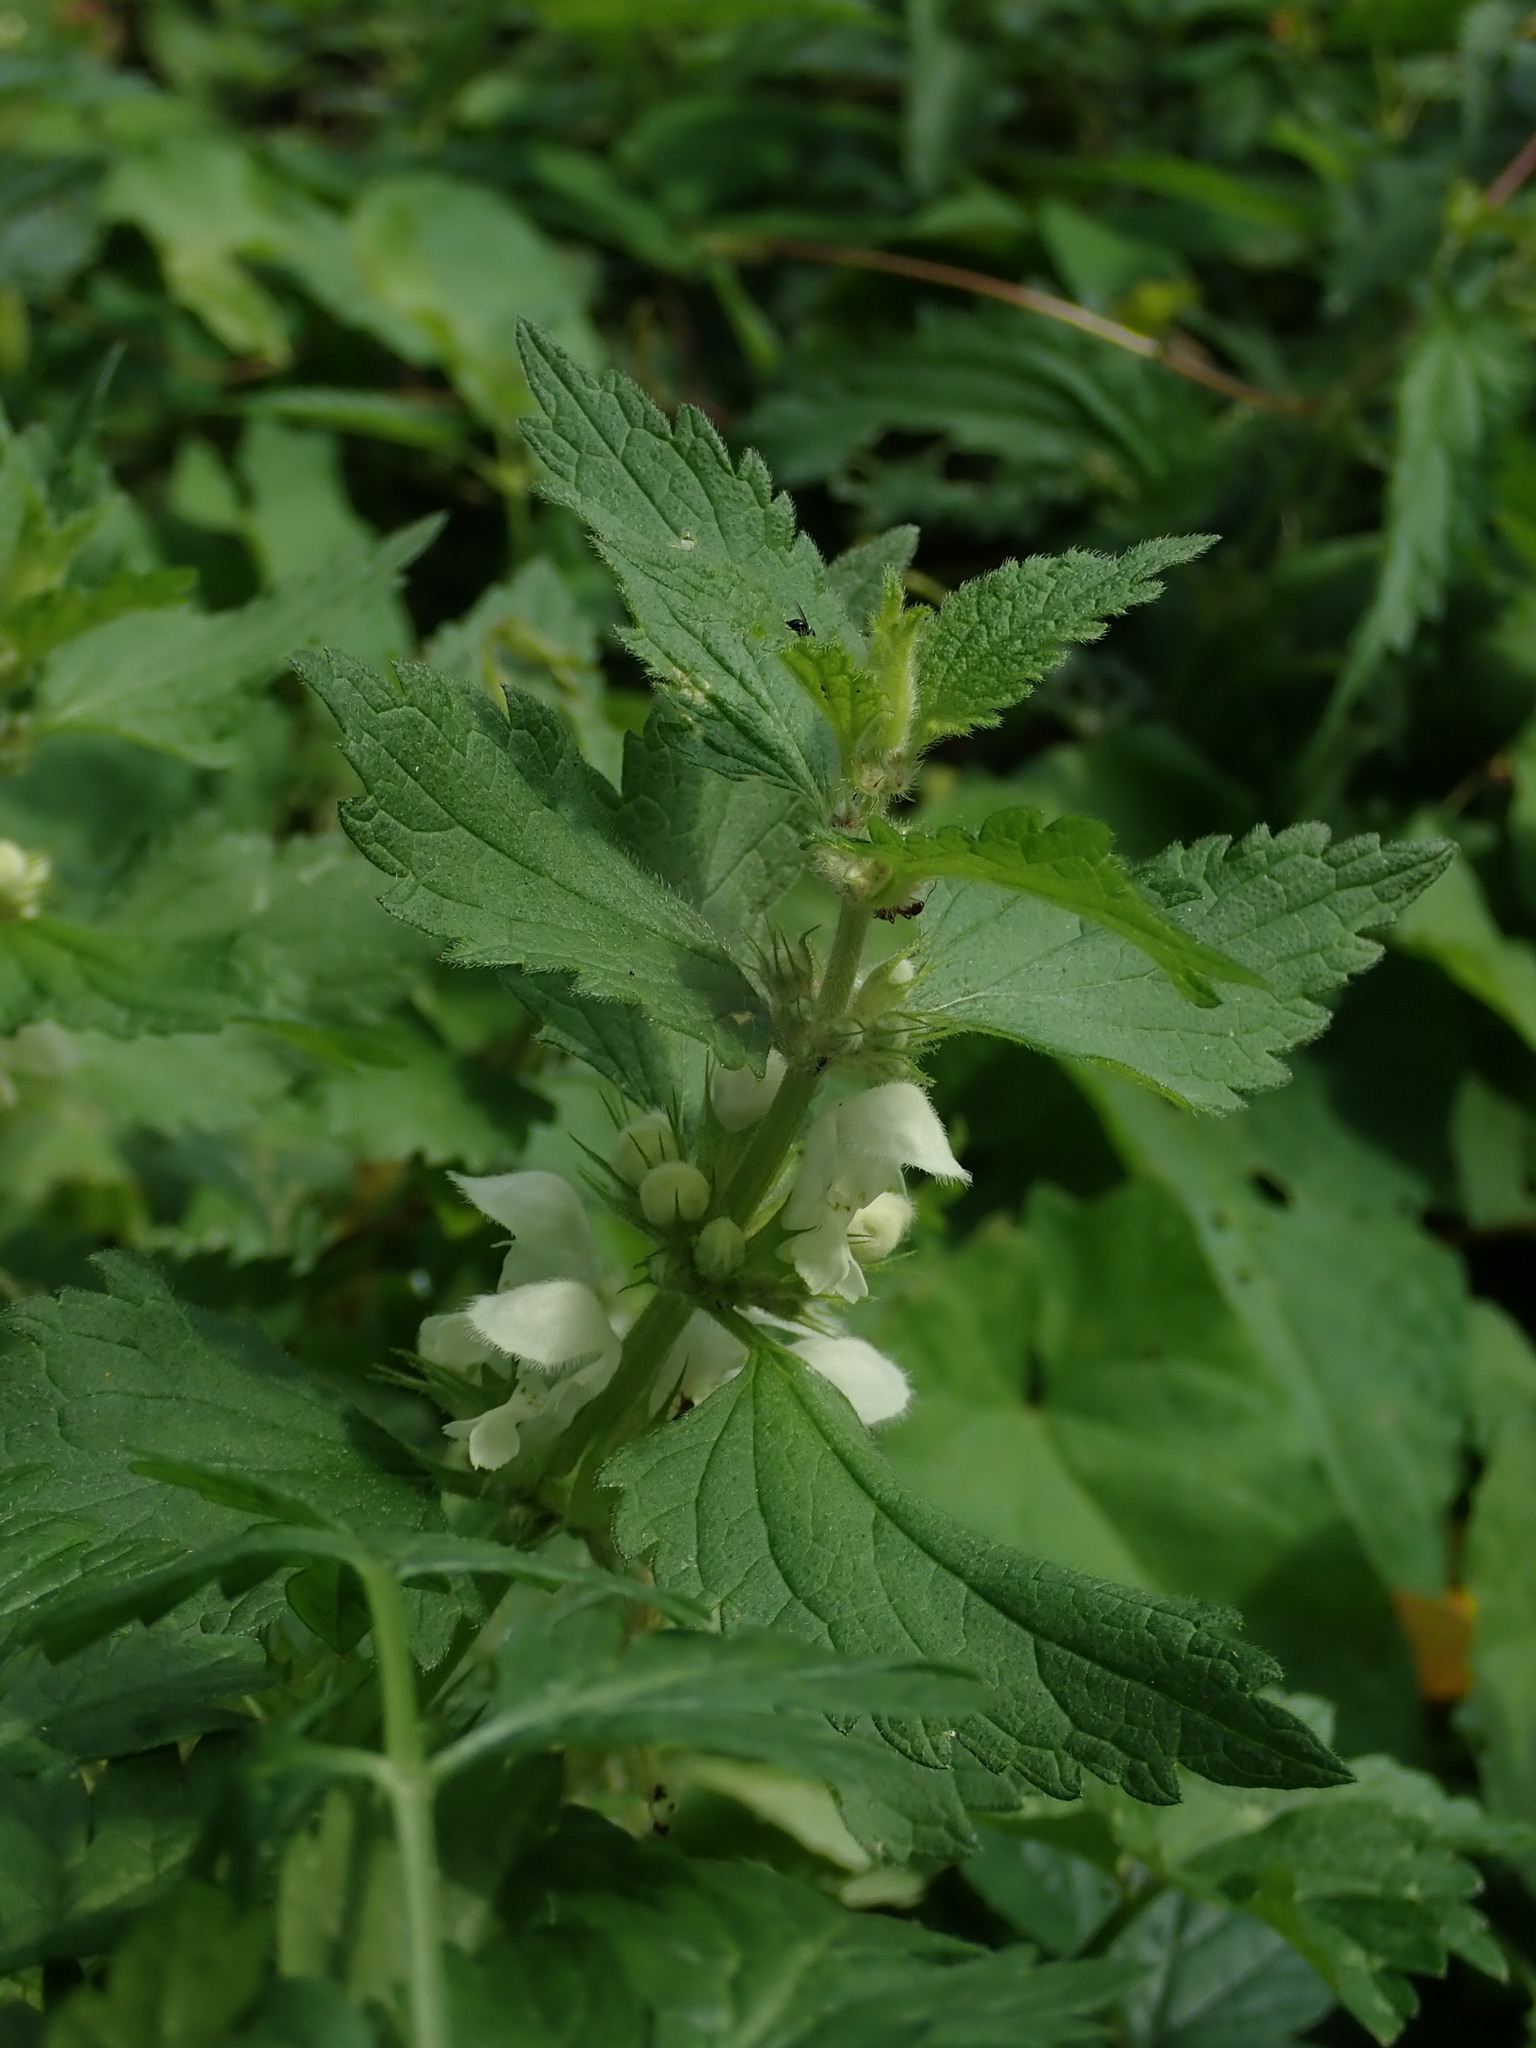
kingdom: Plantae
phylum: Tracheophyta
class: Magnoliopsida
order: Lamiales
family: Lamiaceae
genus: Lamium
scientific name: Lamium album
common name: White dead-nettle
